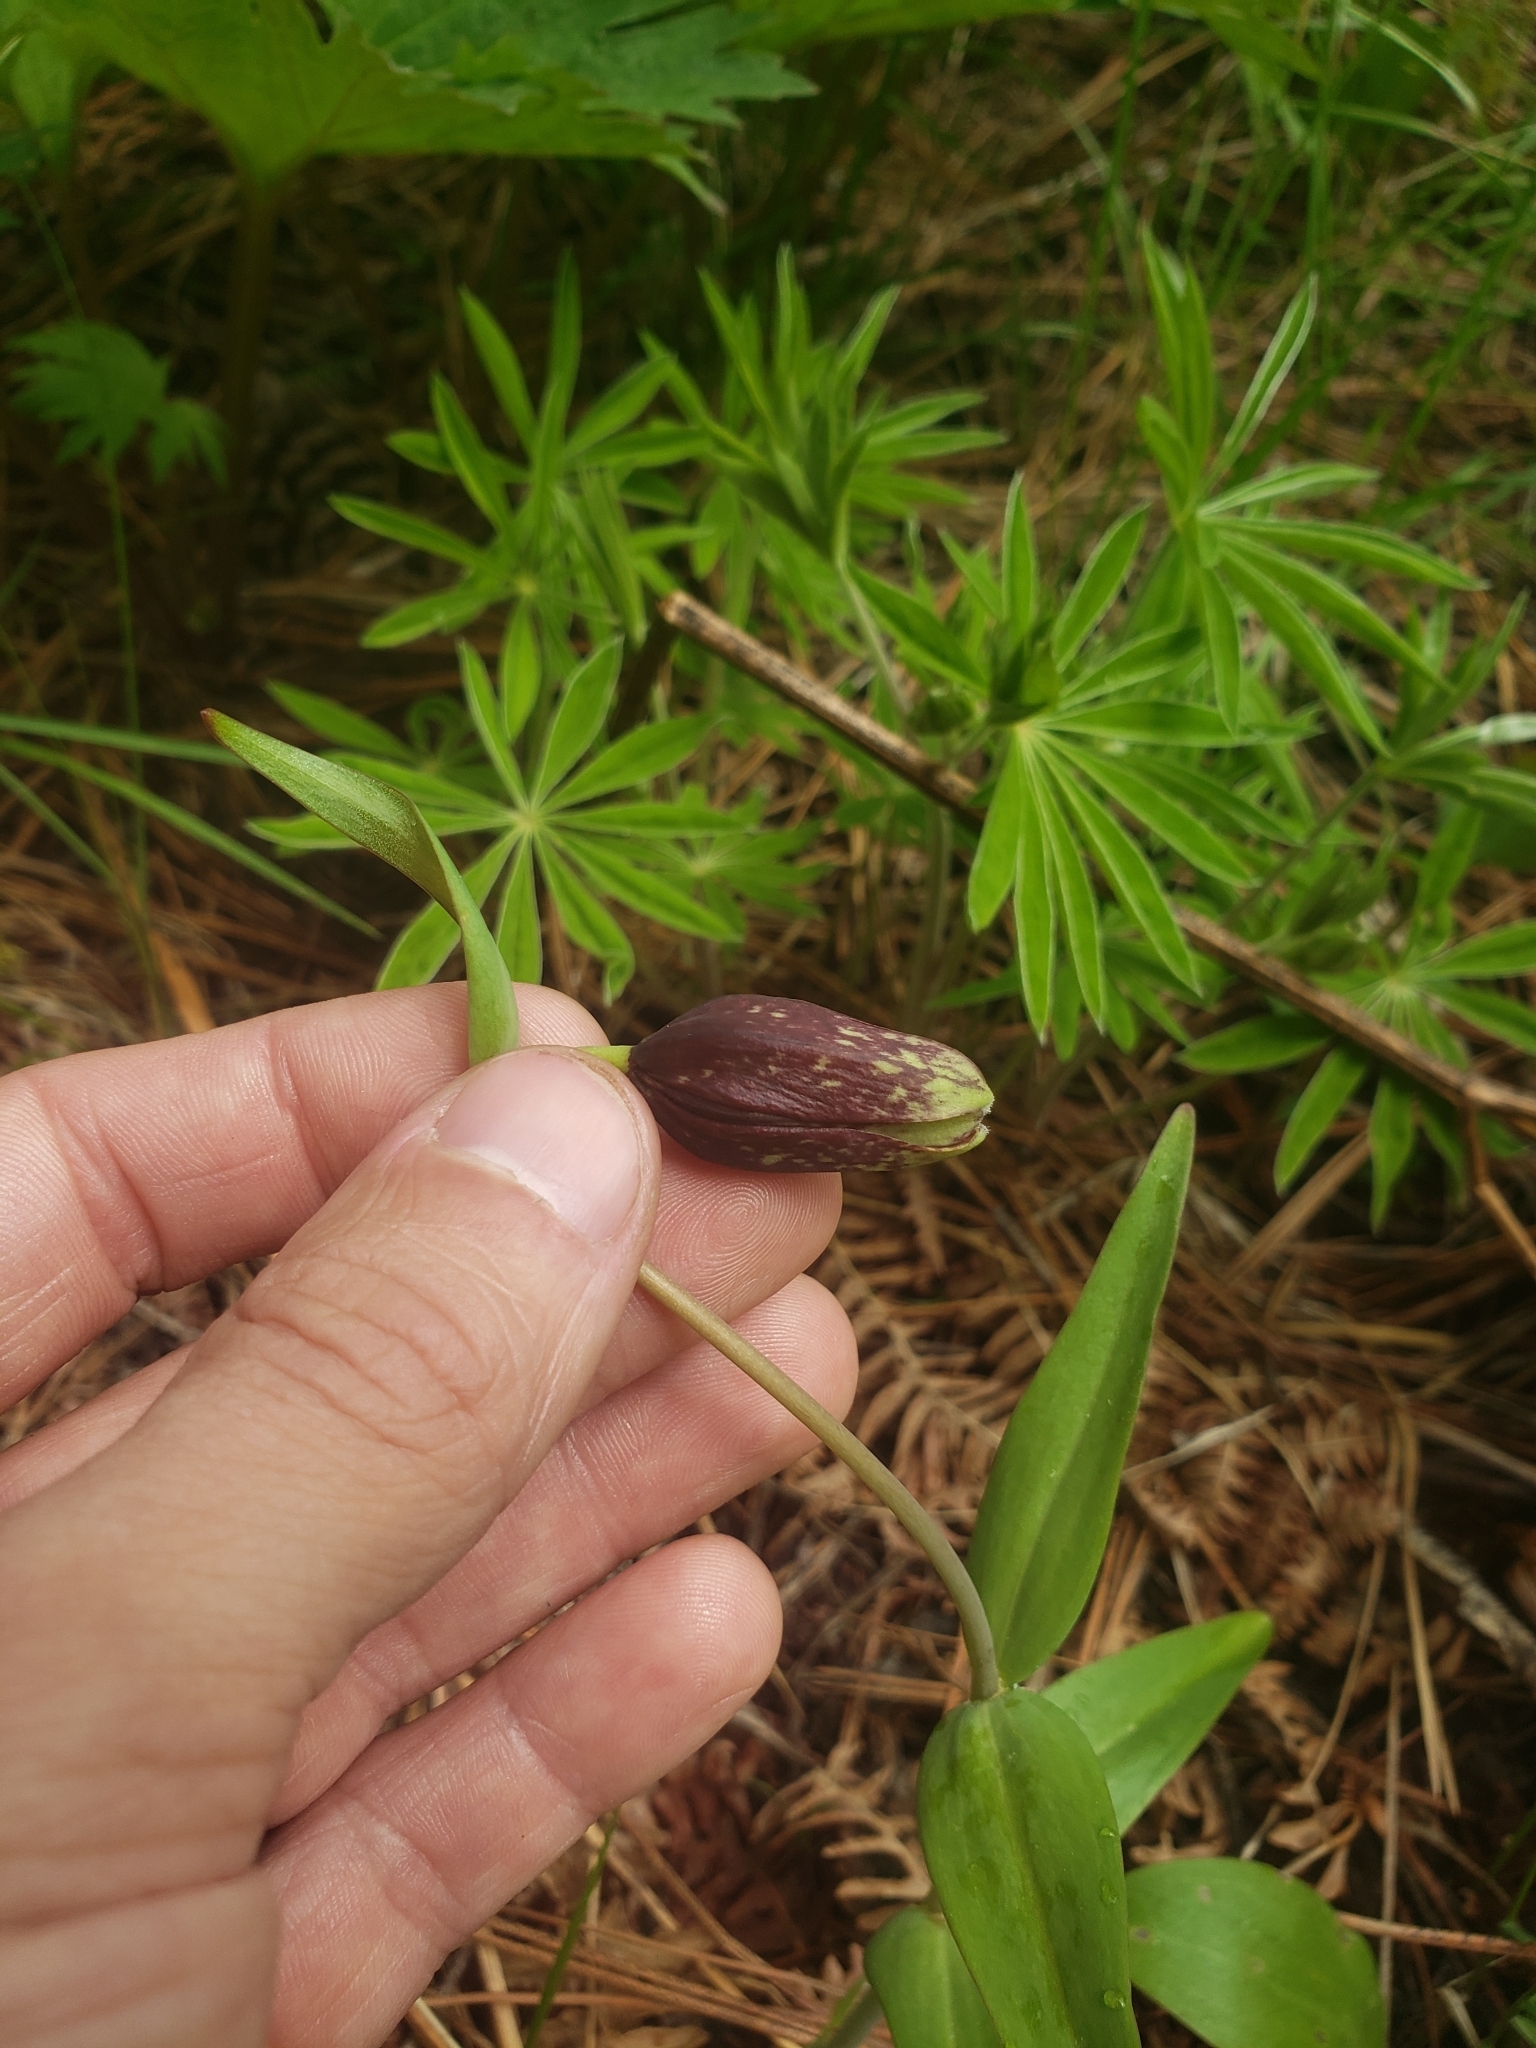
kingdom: Plantae
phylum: Tracheophyta
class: Liliopsida
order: Liliales
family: Liliaceae
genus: Fritillaria
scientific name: Fritillaria affinis
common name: Ojai fritillary
